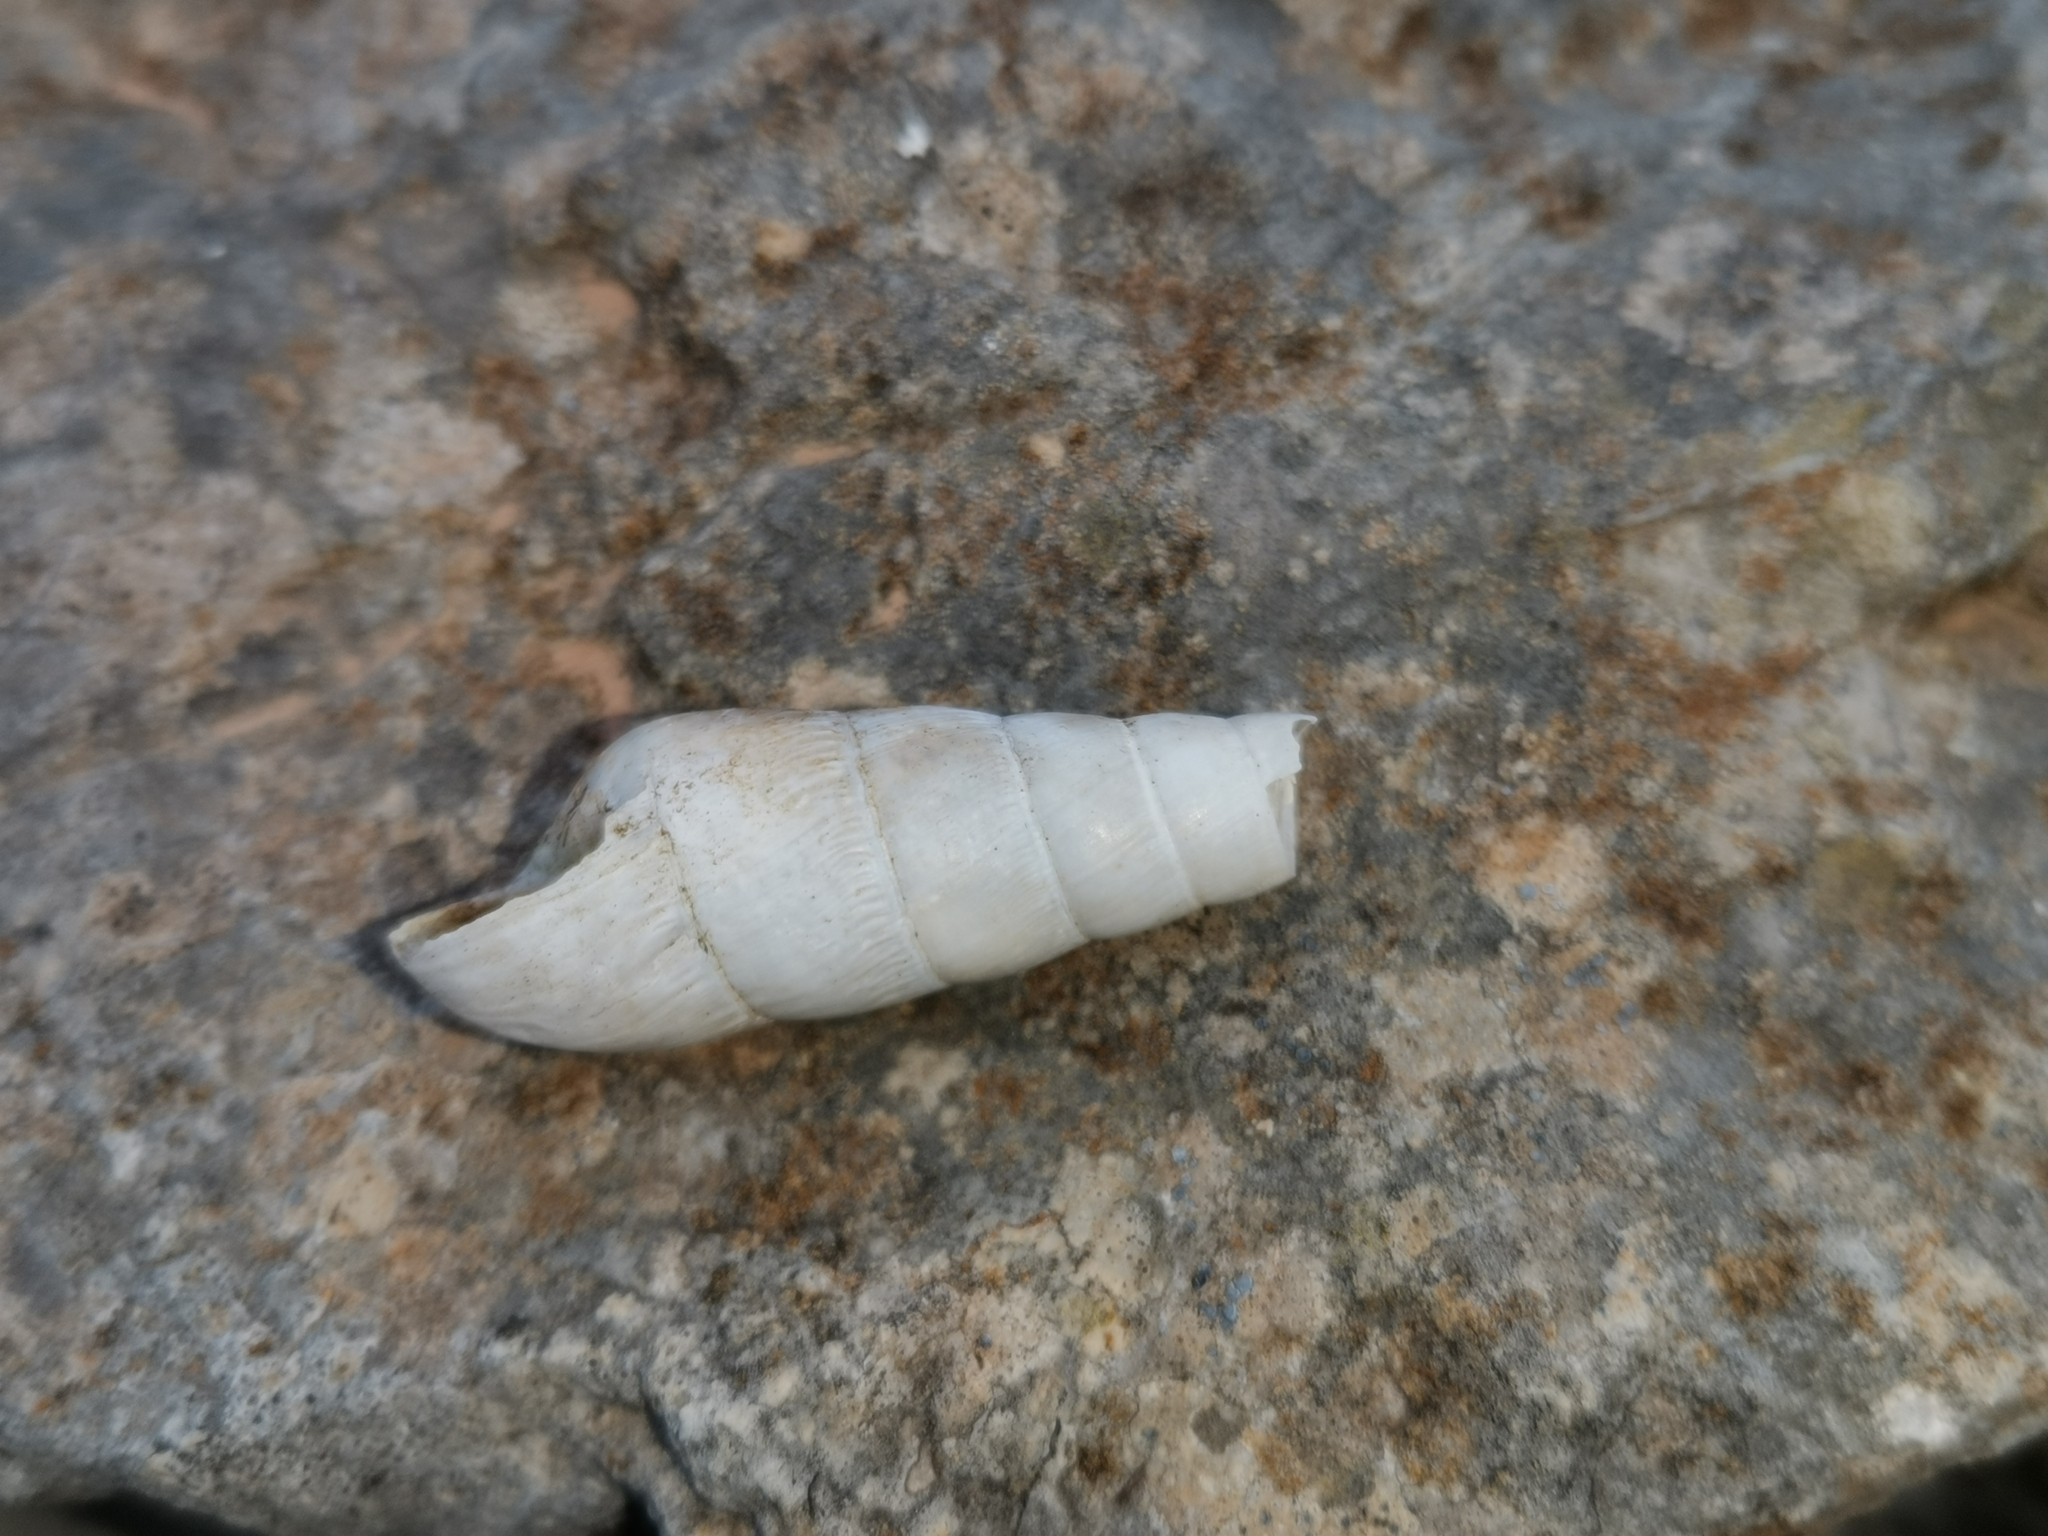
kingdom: Animalia
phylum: Mollusca
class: Gastropoda
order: Stylommatophora
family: Achatinidae
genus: Rumina
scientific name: Rumina decollata
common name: Decollate snail
